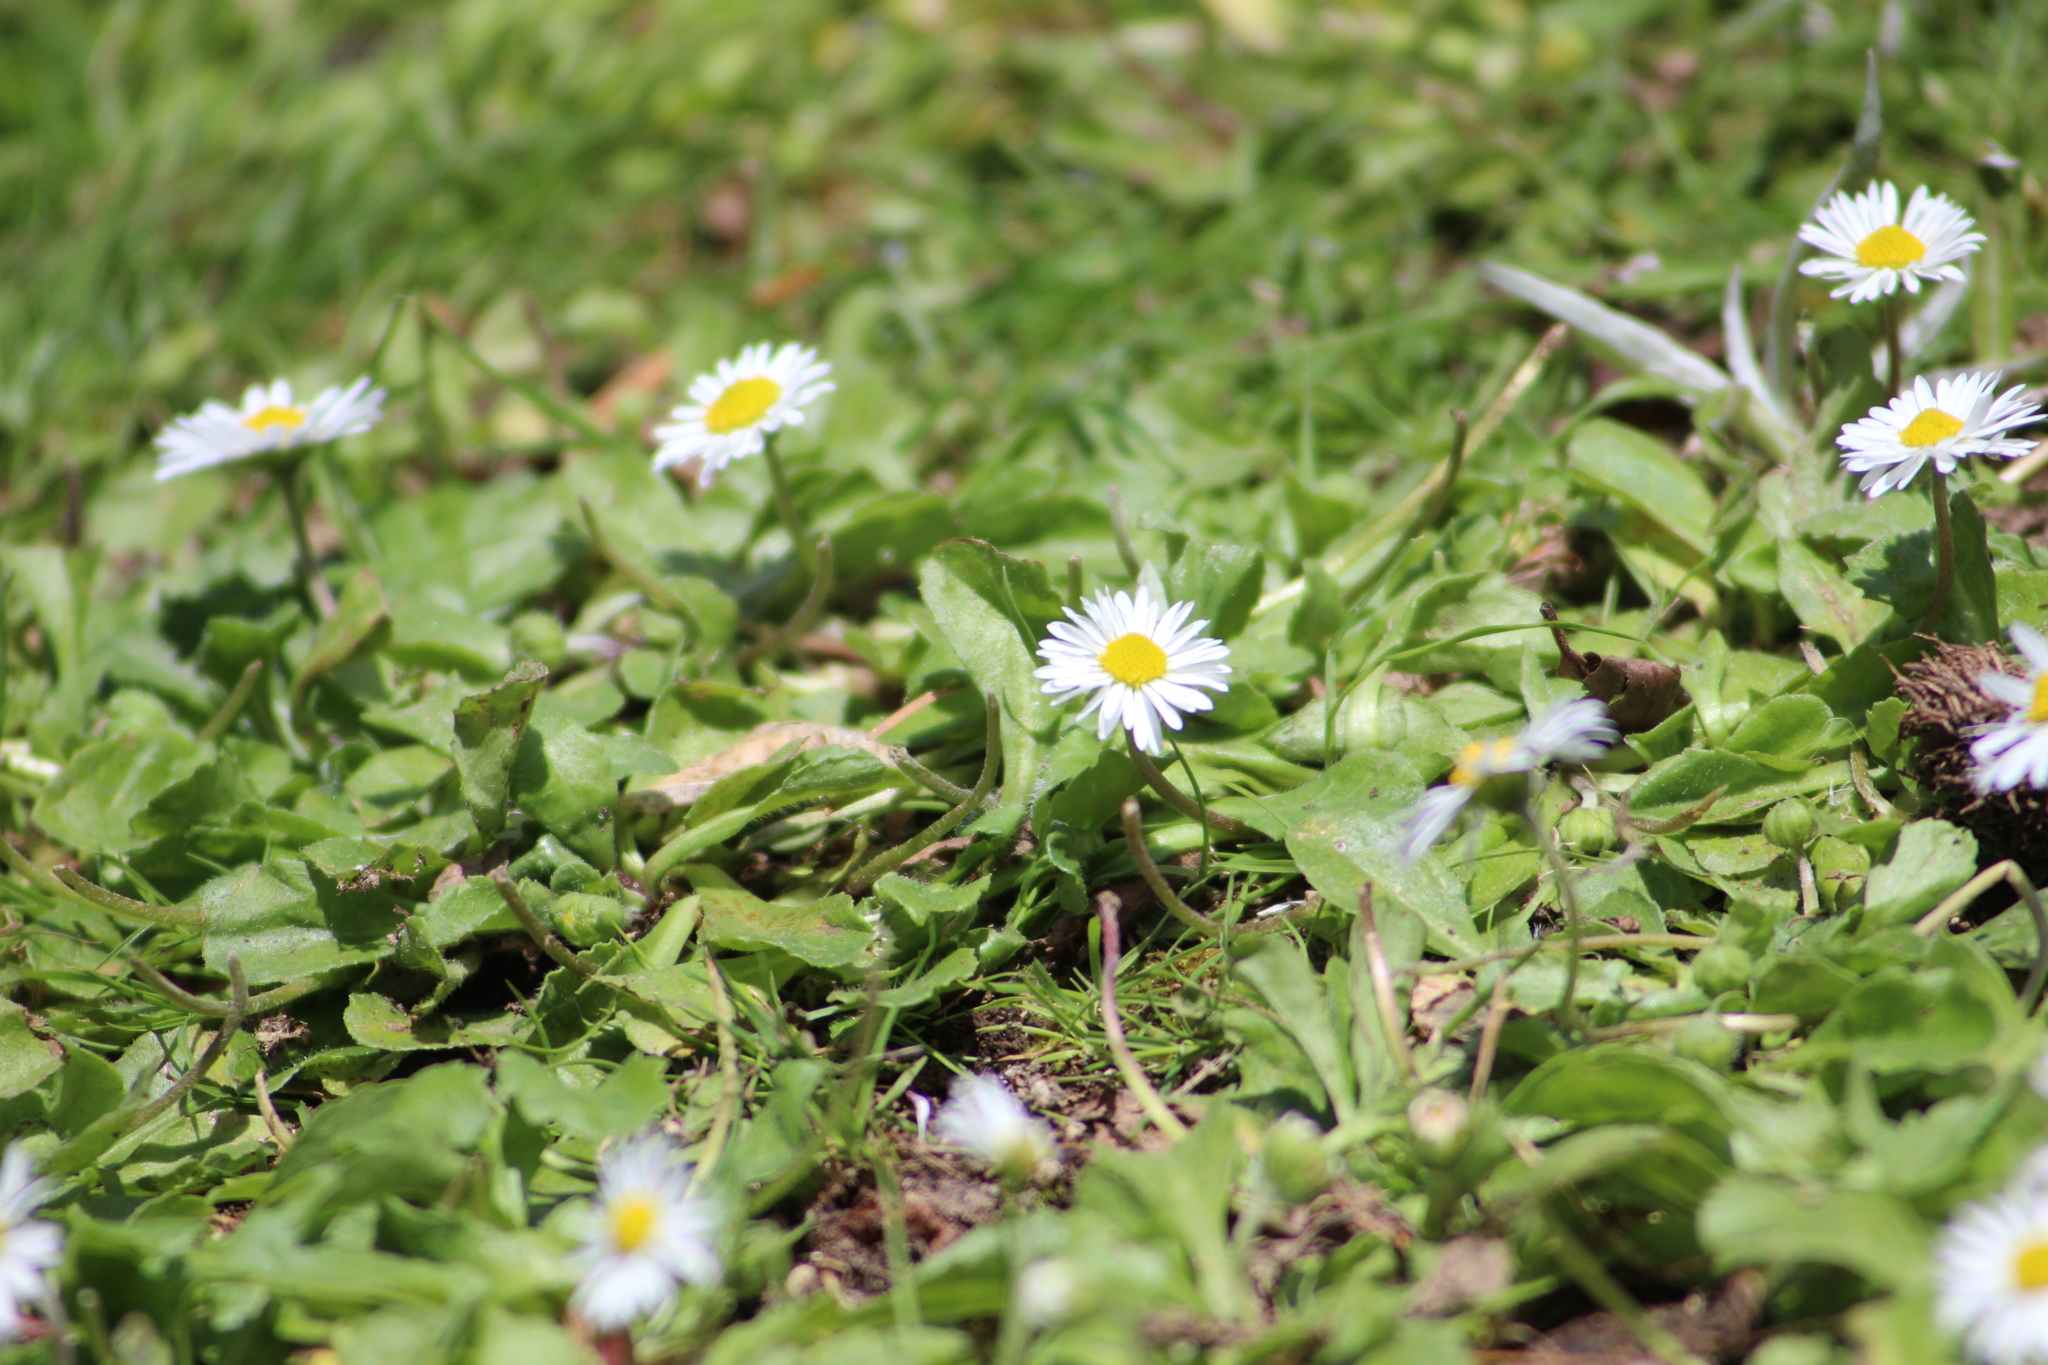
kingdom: Plantae
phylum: Tracheophyta
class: Magnoliopsida
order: Asterales
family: Asteraceae
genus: Bellis
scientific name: Bellis perennis
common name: Lawndaisy
